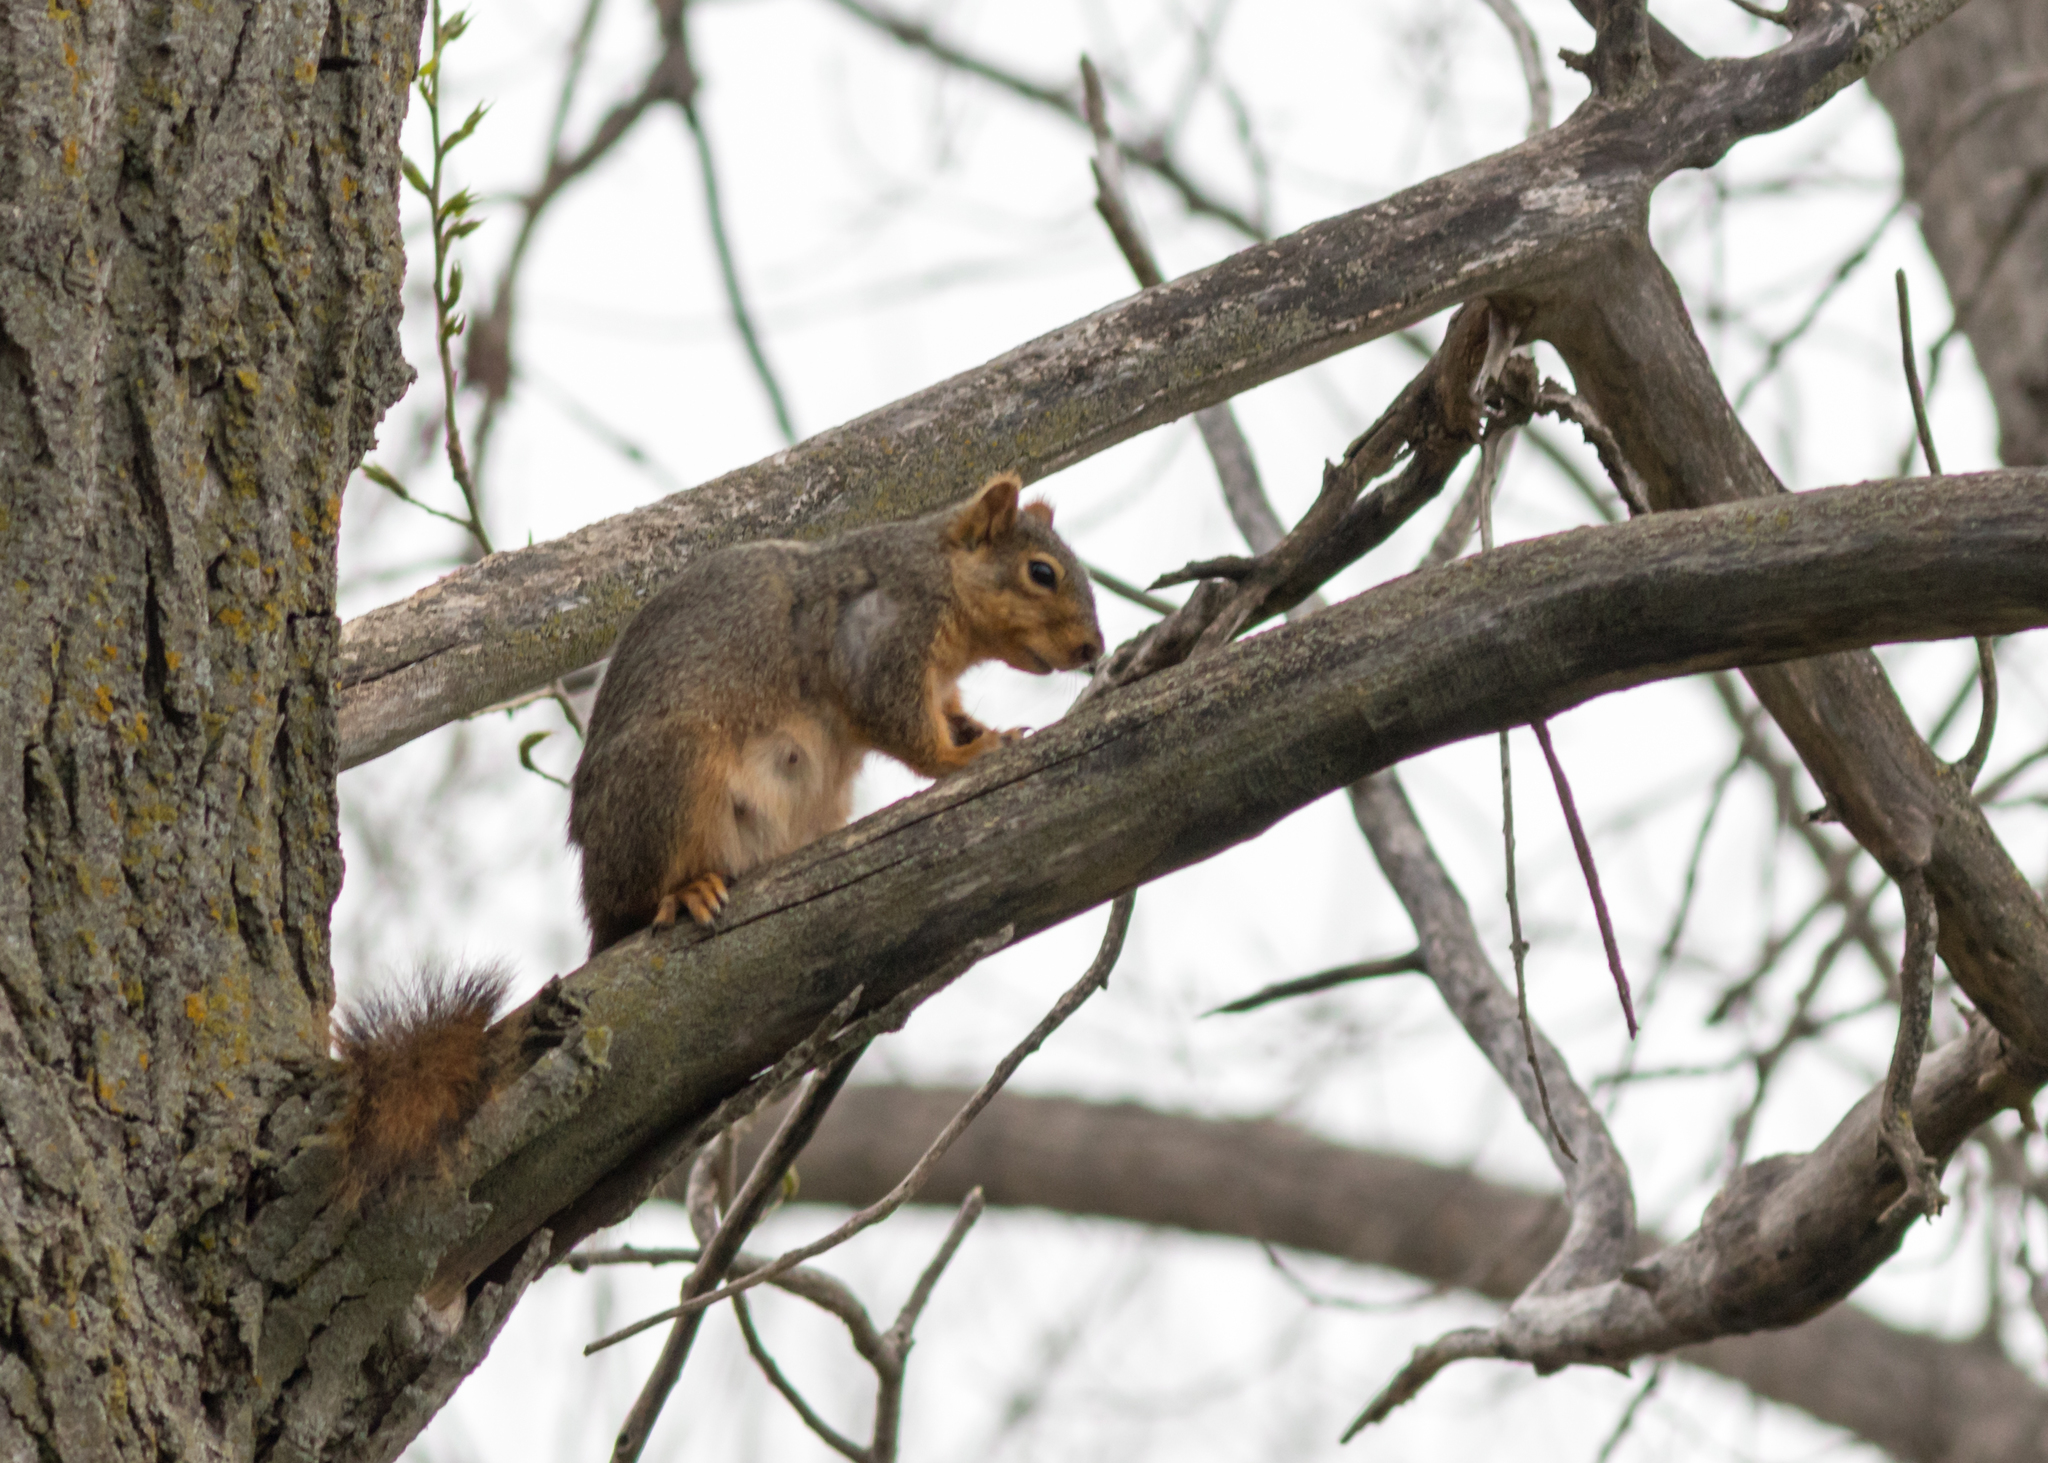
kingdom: Animalia
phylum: Chordata
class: Mammalia
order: Rodentia
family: Sciuridae
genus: Sciurus
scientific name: Sciurus niger
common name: Fox squirrel
